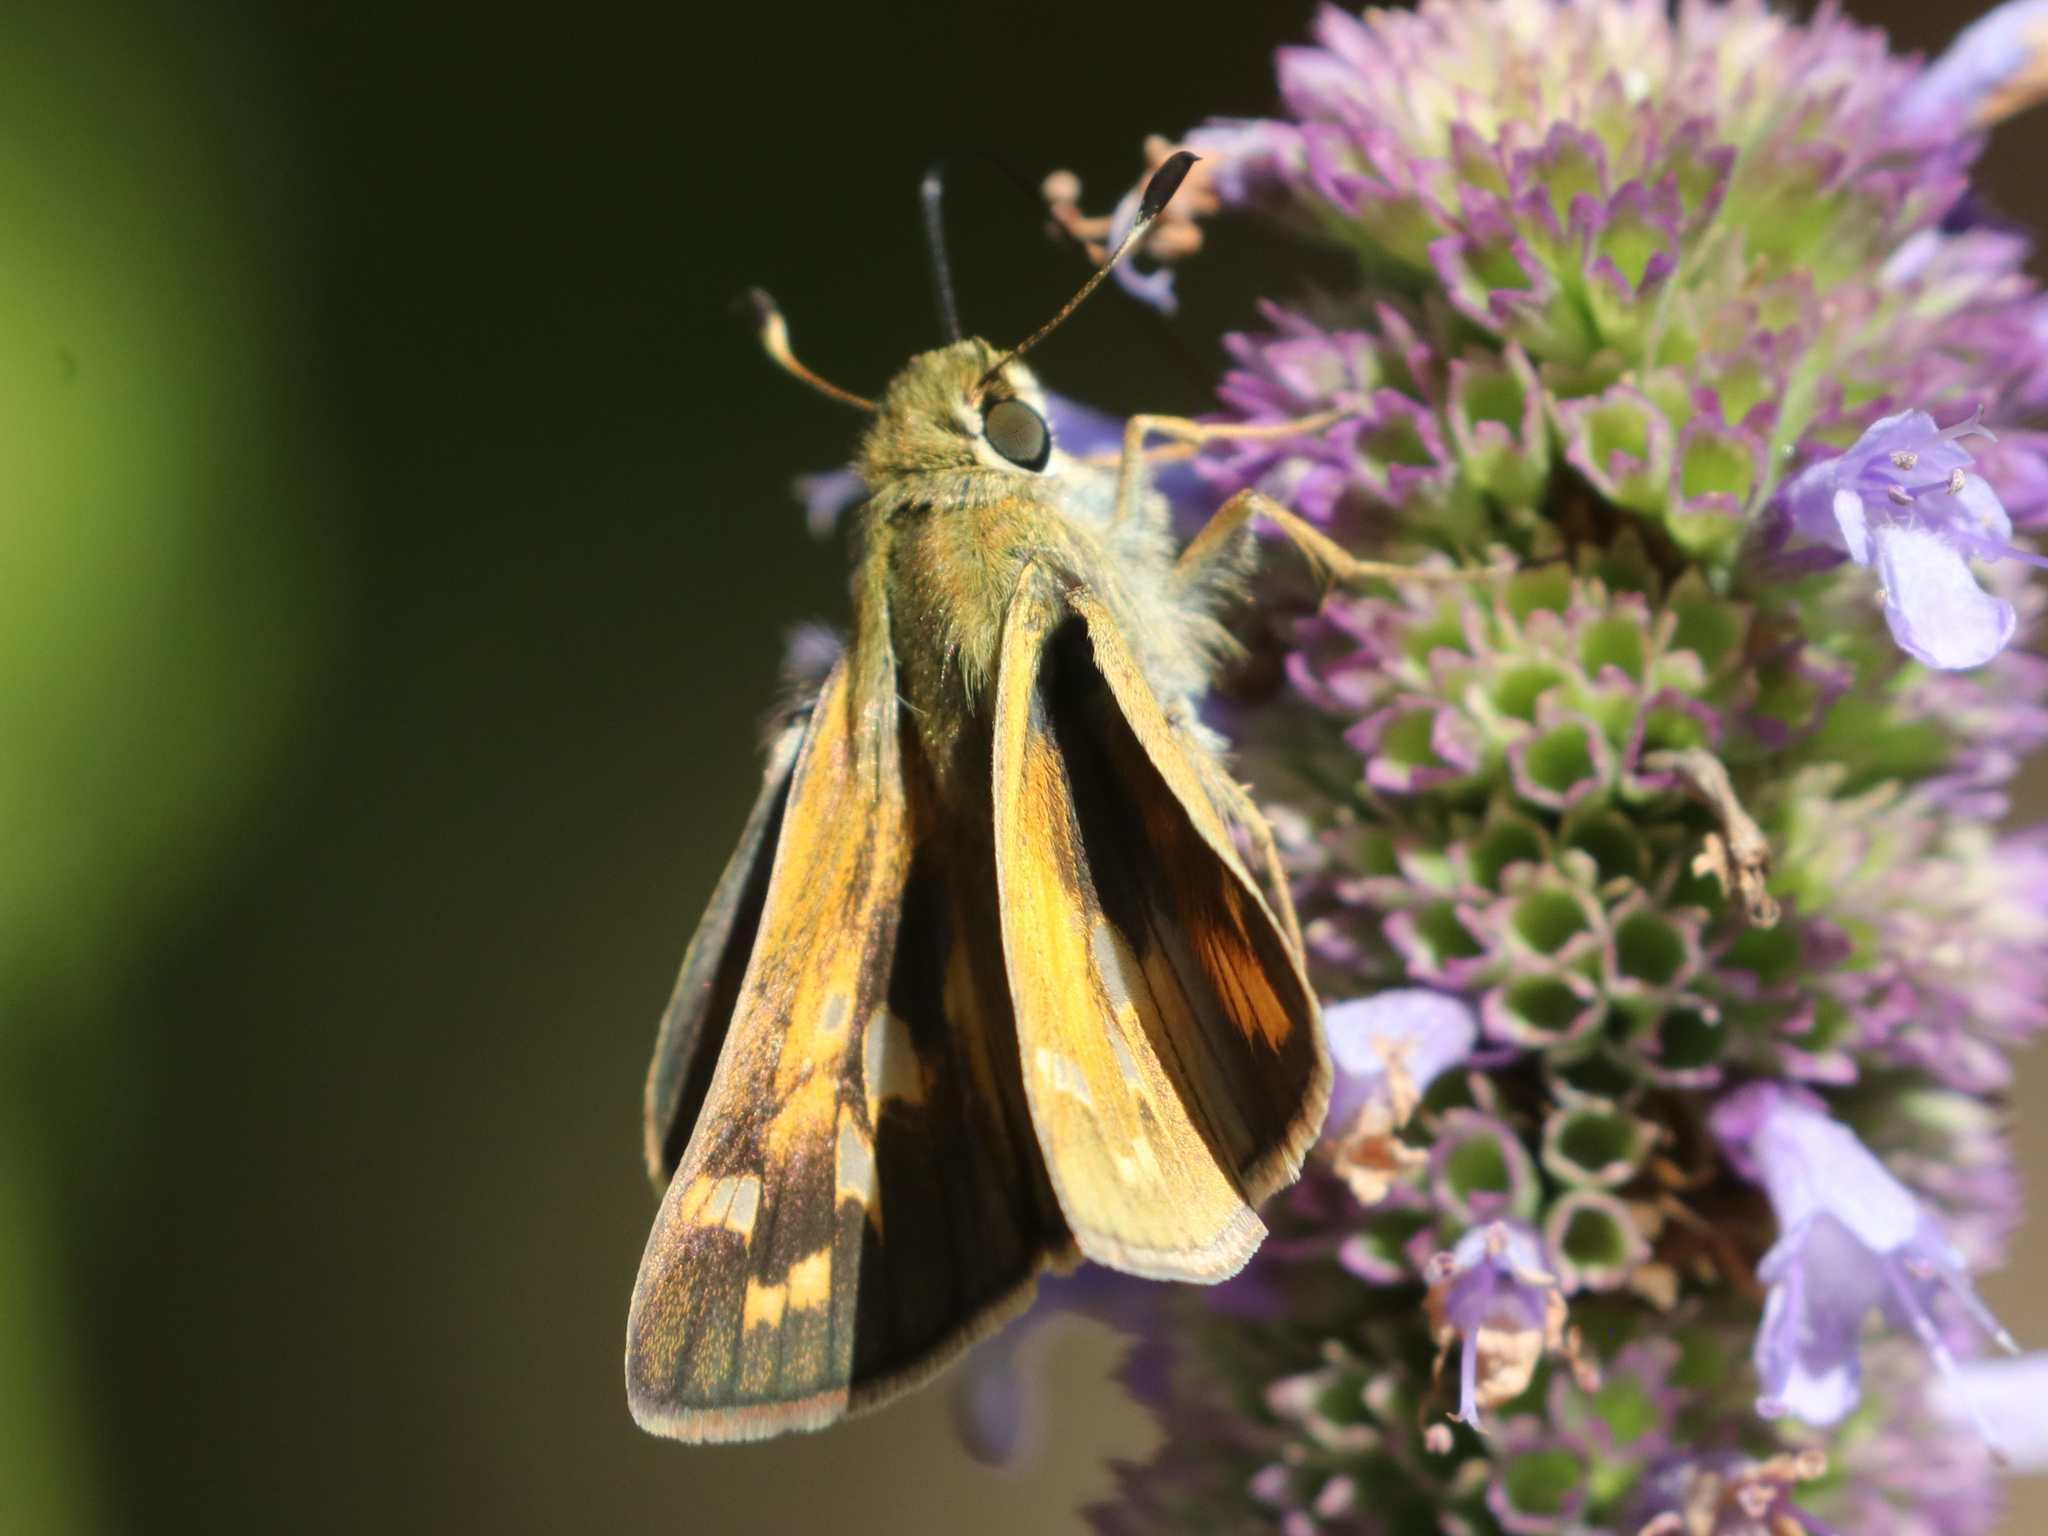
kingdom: Animalia
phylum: Arthropoda
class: Insecta
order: Lepidoptera
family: Hesperiidae
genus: Atalopedes
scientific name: Atalopedes
